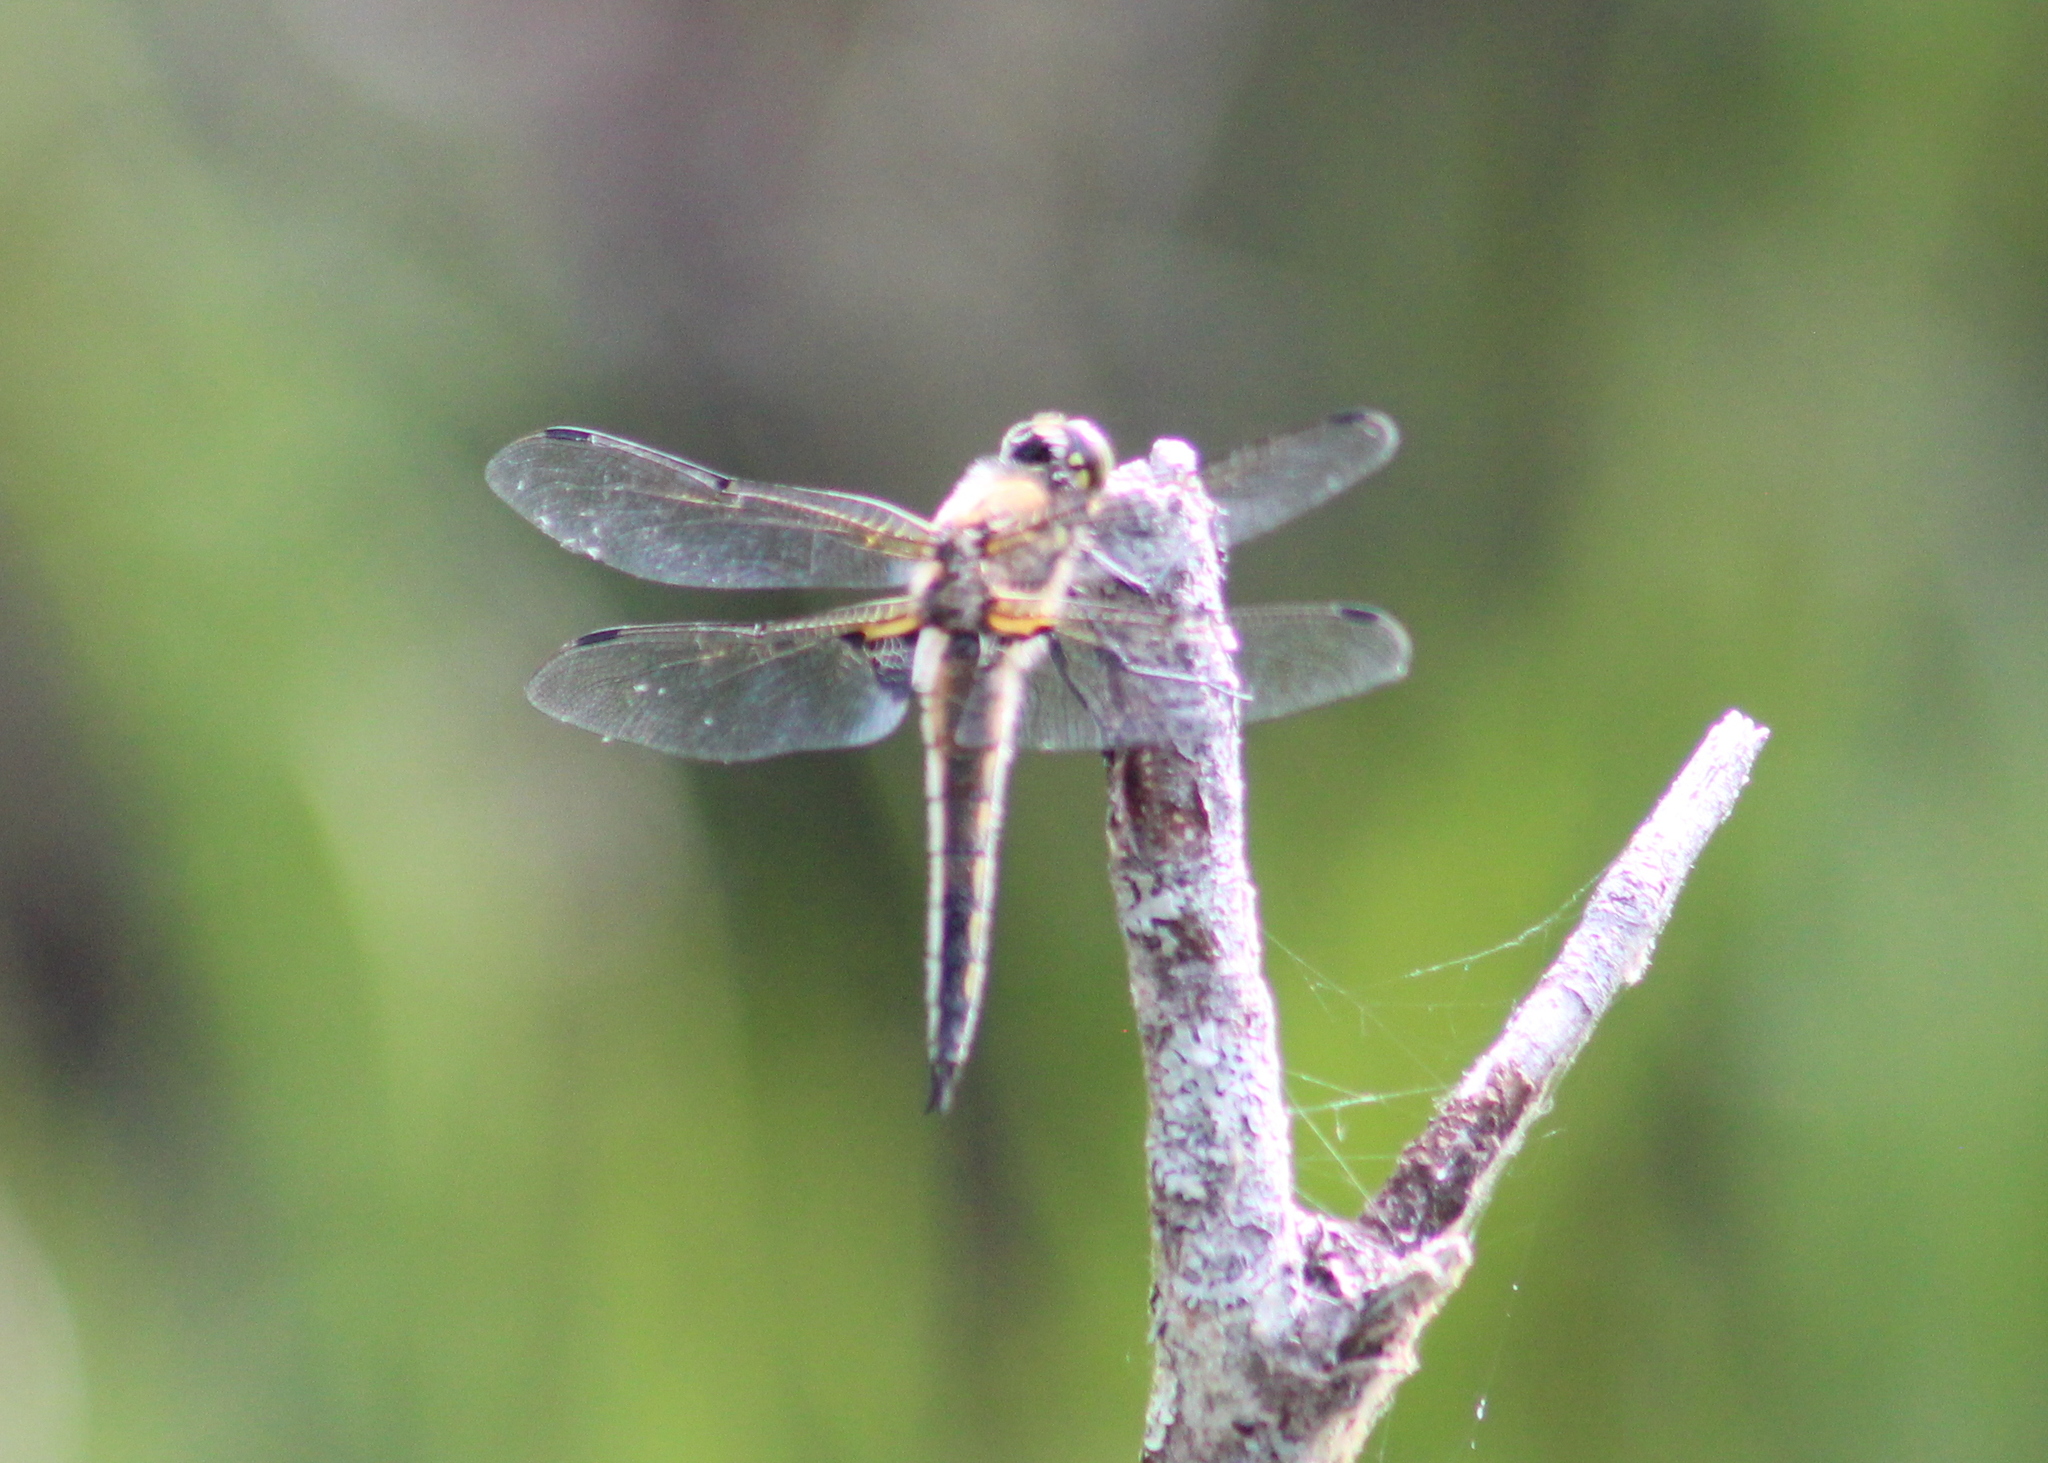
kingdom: Animalia
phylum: Arthropoda
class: Insecta
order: Odonata
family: Libellulidae
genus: Libellula
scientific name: Libellula quadrimaculata
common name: Four-spotted chaser
